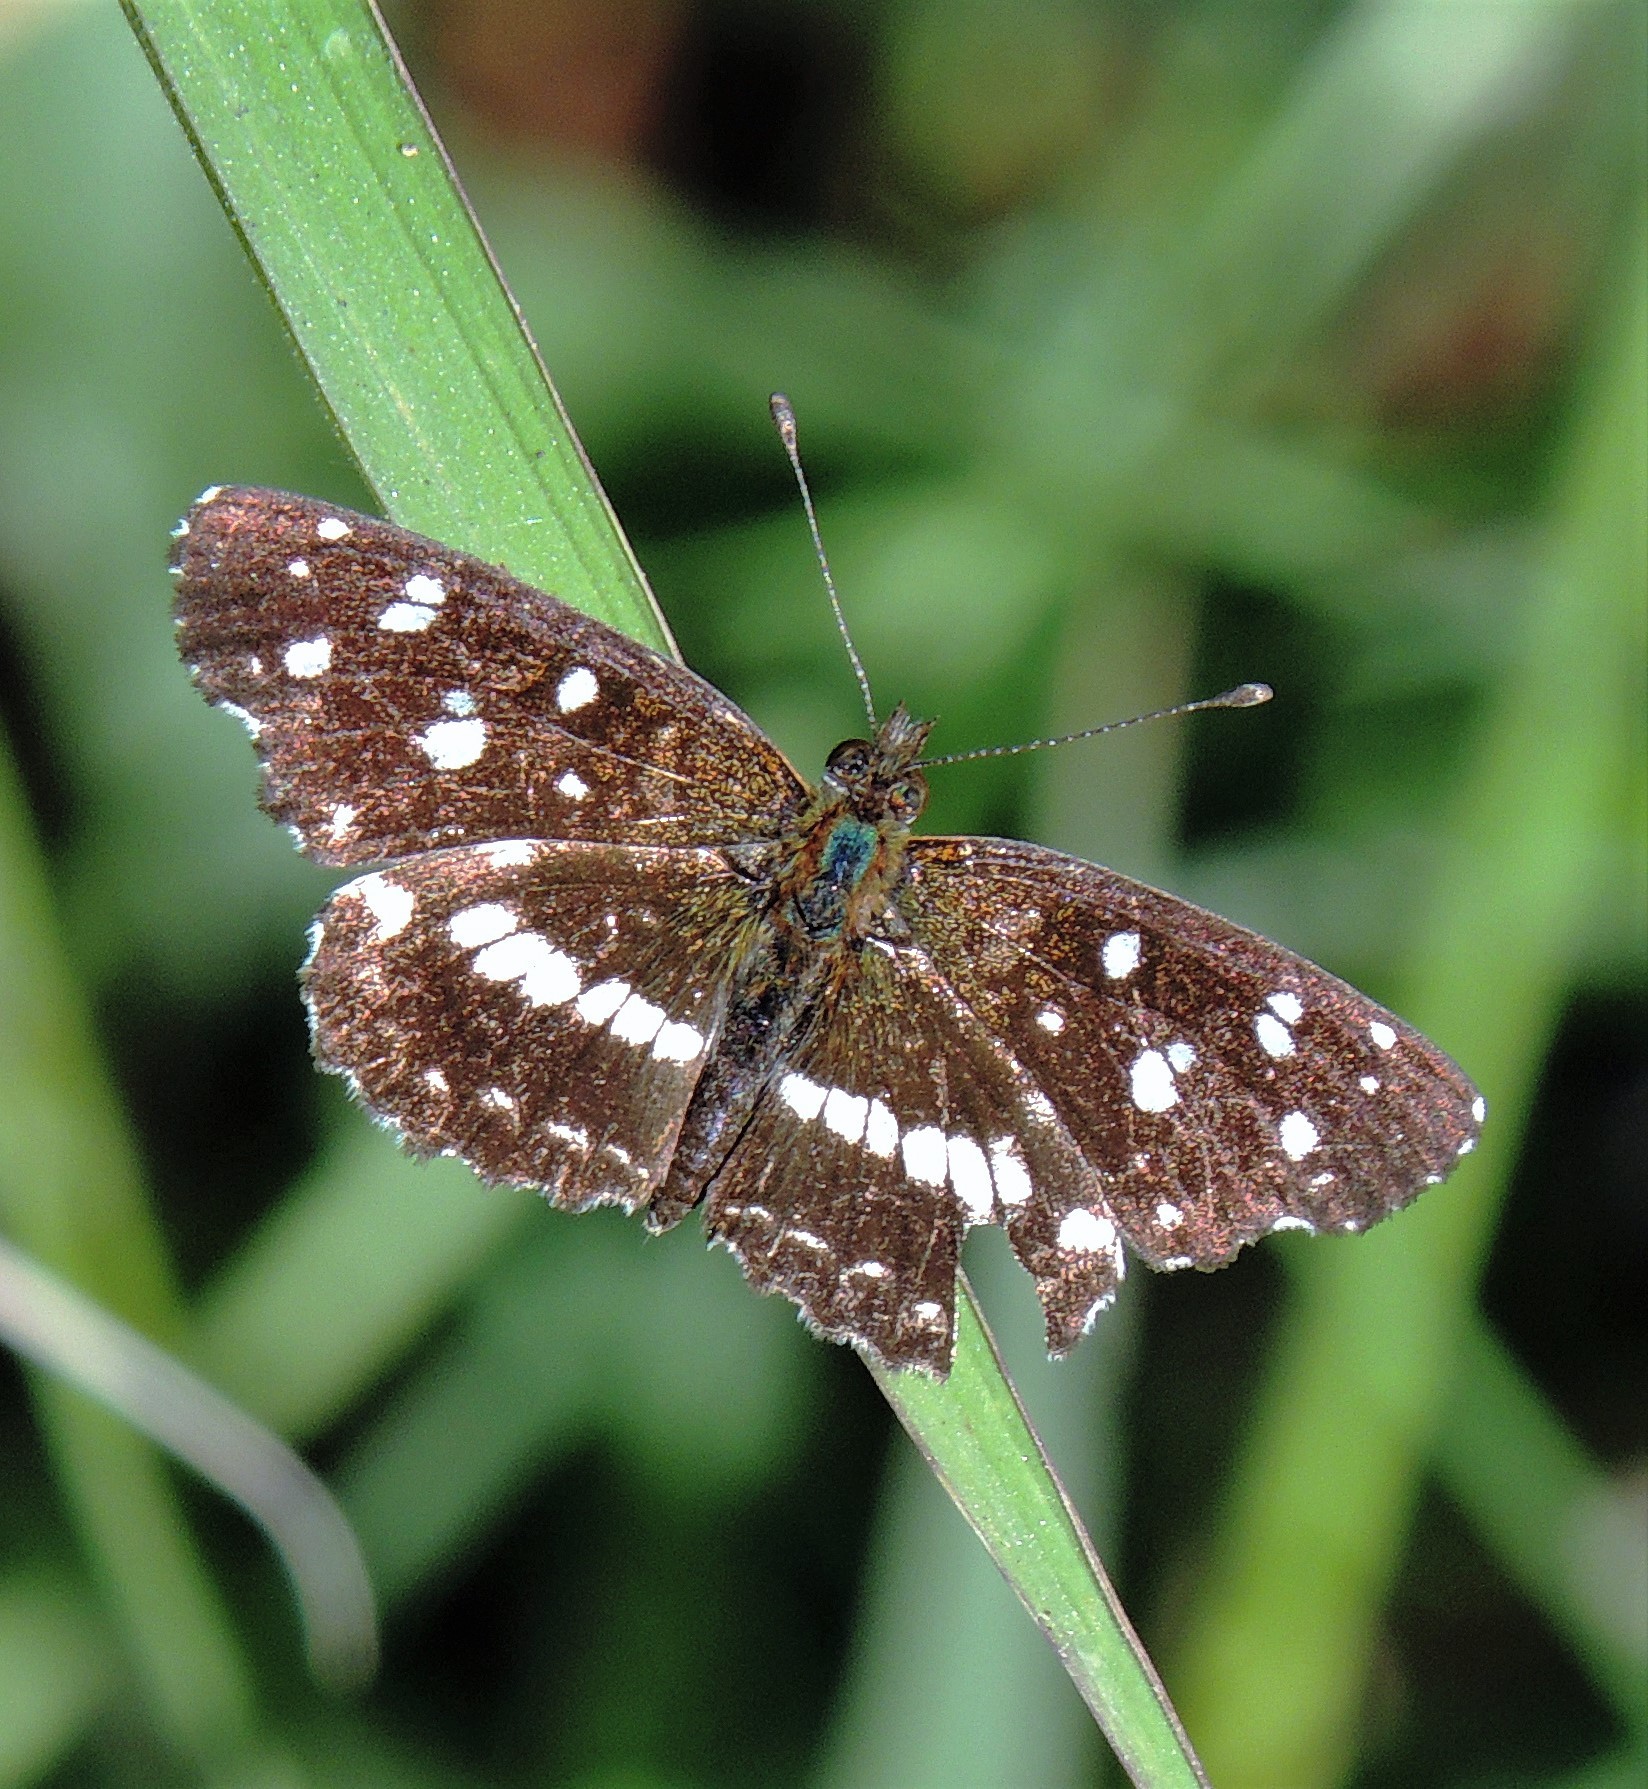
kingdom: Animalia
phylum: Arthropoda
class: Insecta
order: Lepidoptera
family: Nymphalidae
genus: Ortilia
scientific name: Ortilia ithra
